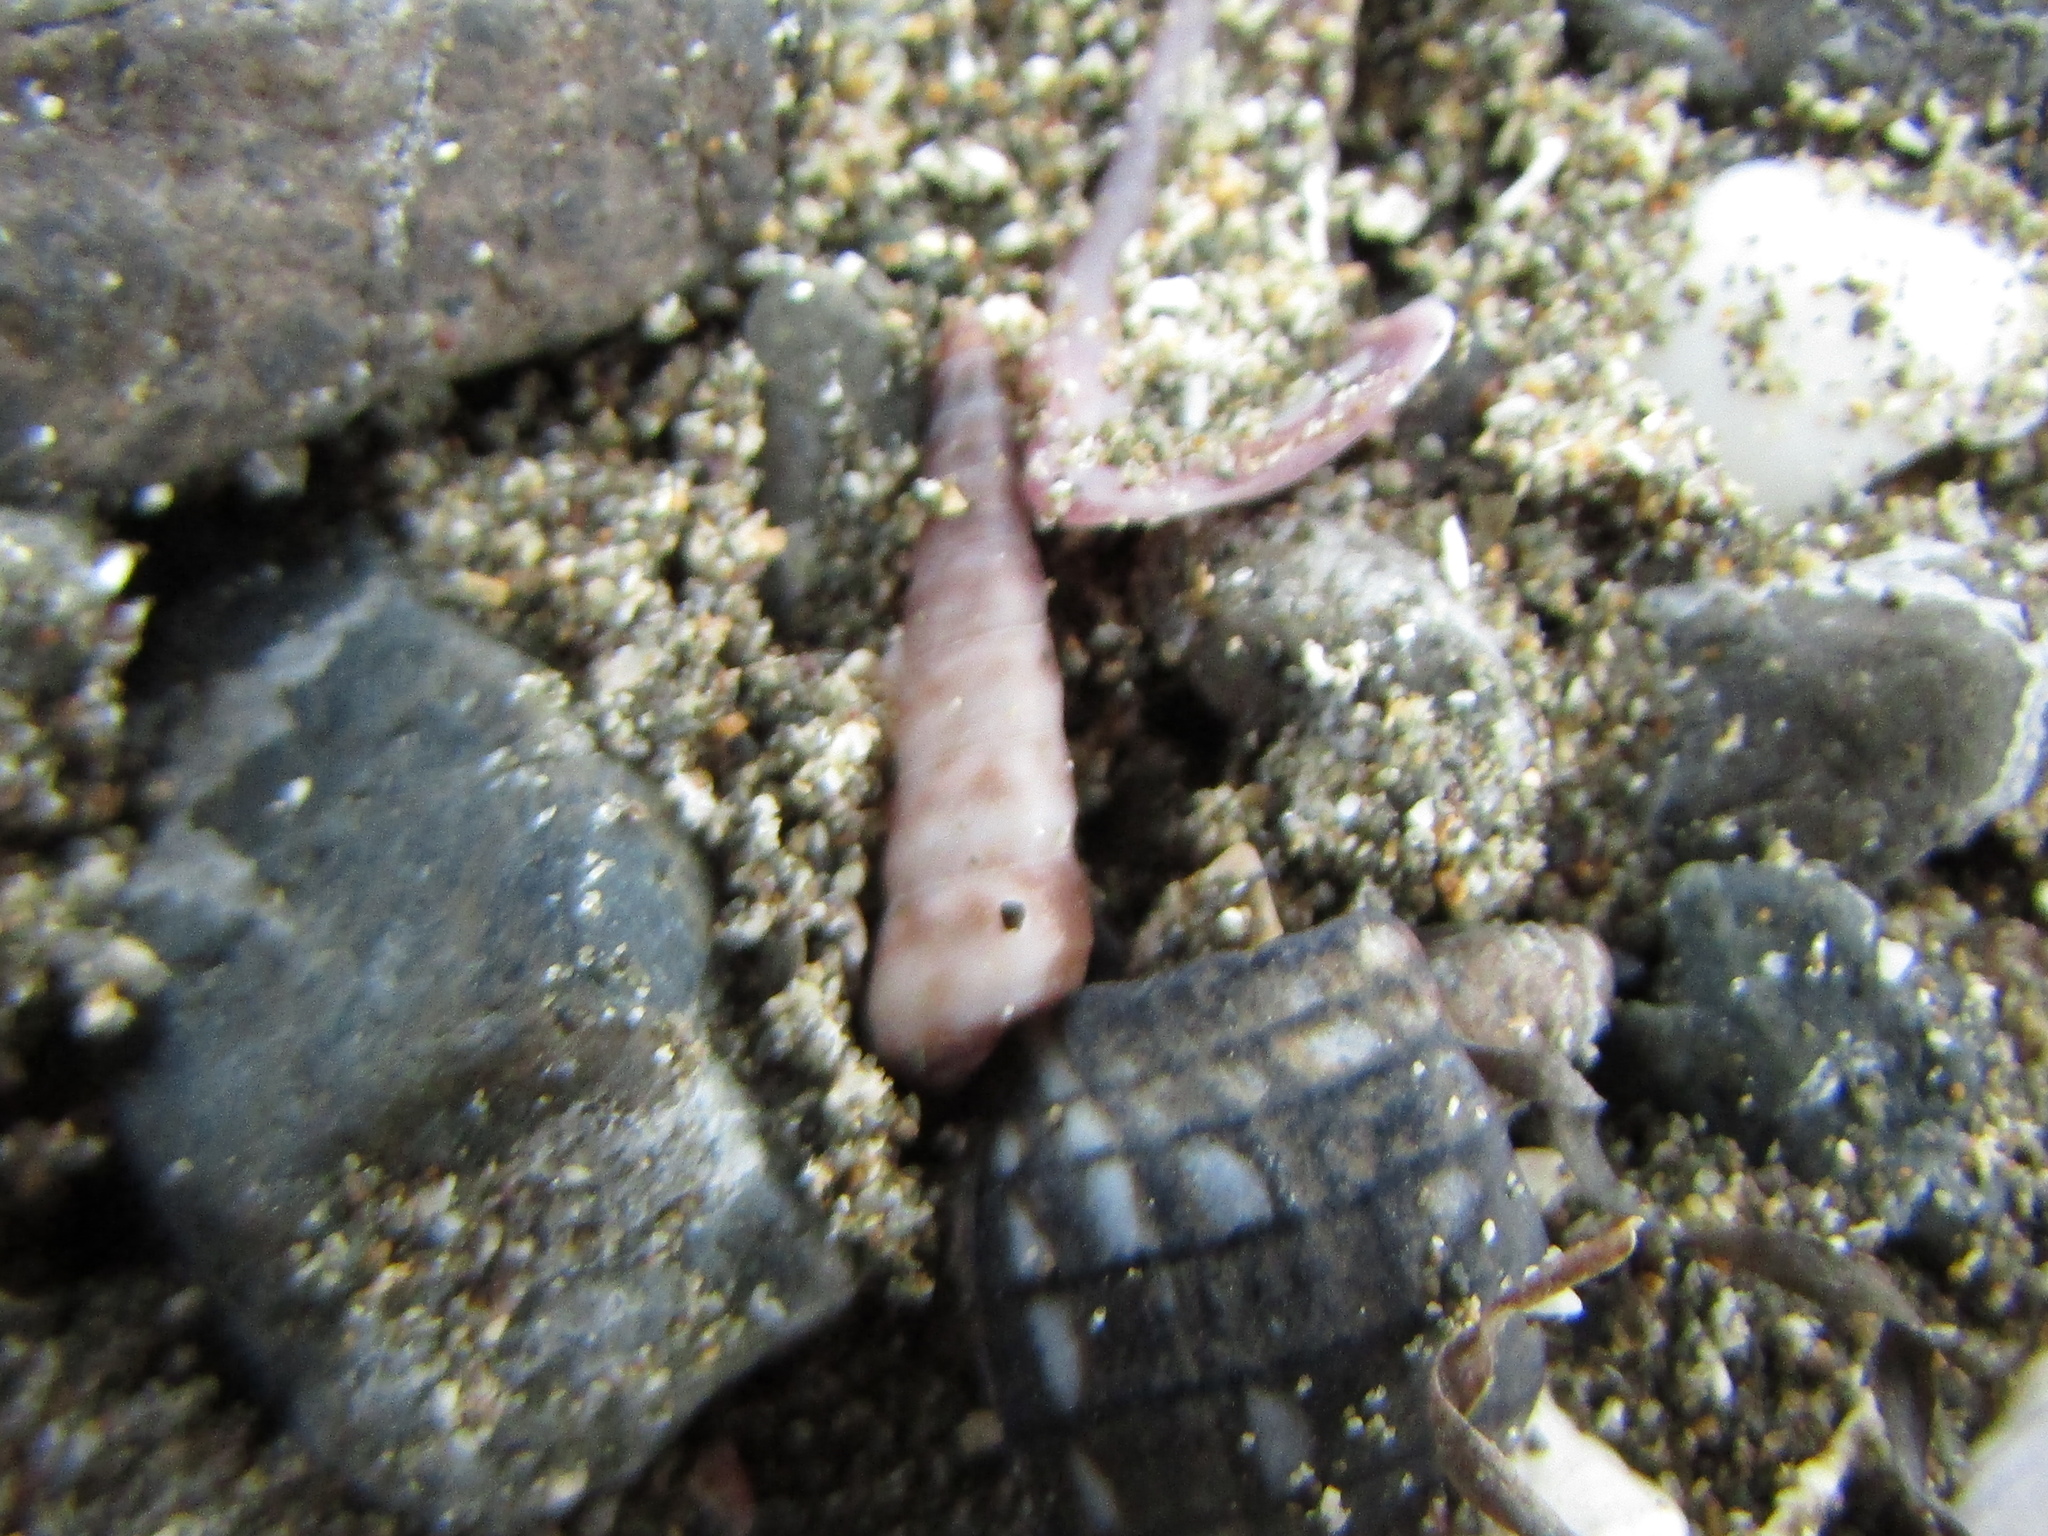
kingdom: Animalia
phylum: Mollusca
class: Gastropoda
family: Turritellidae
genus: Stiracolpus
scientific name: Stiracolpus pagoda
